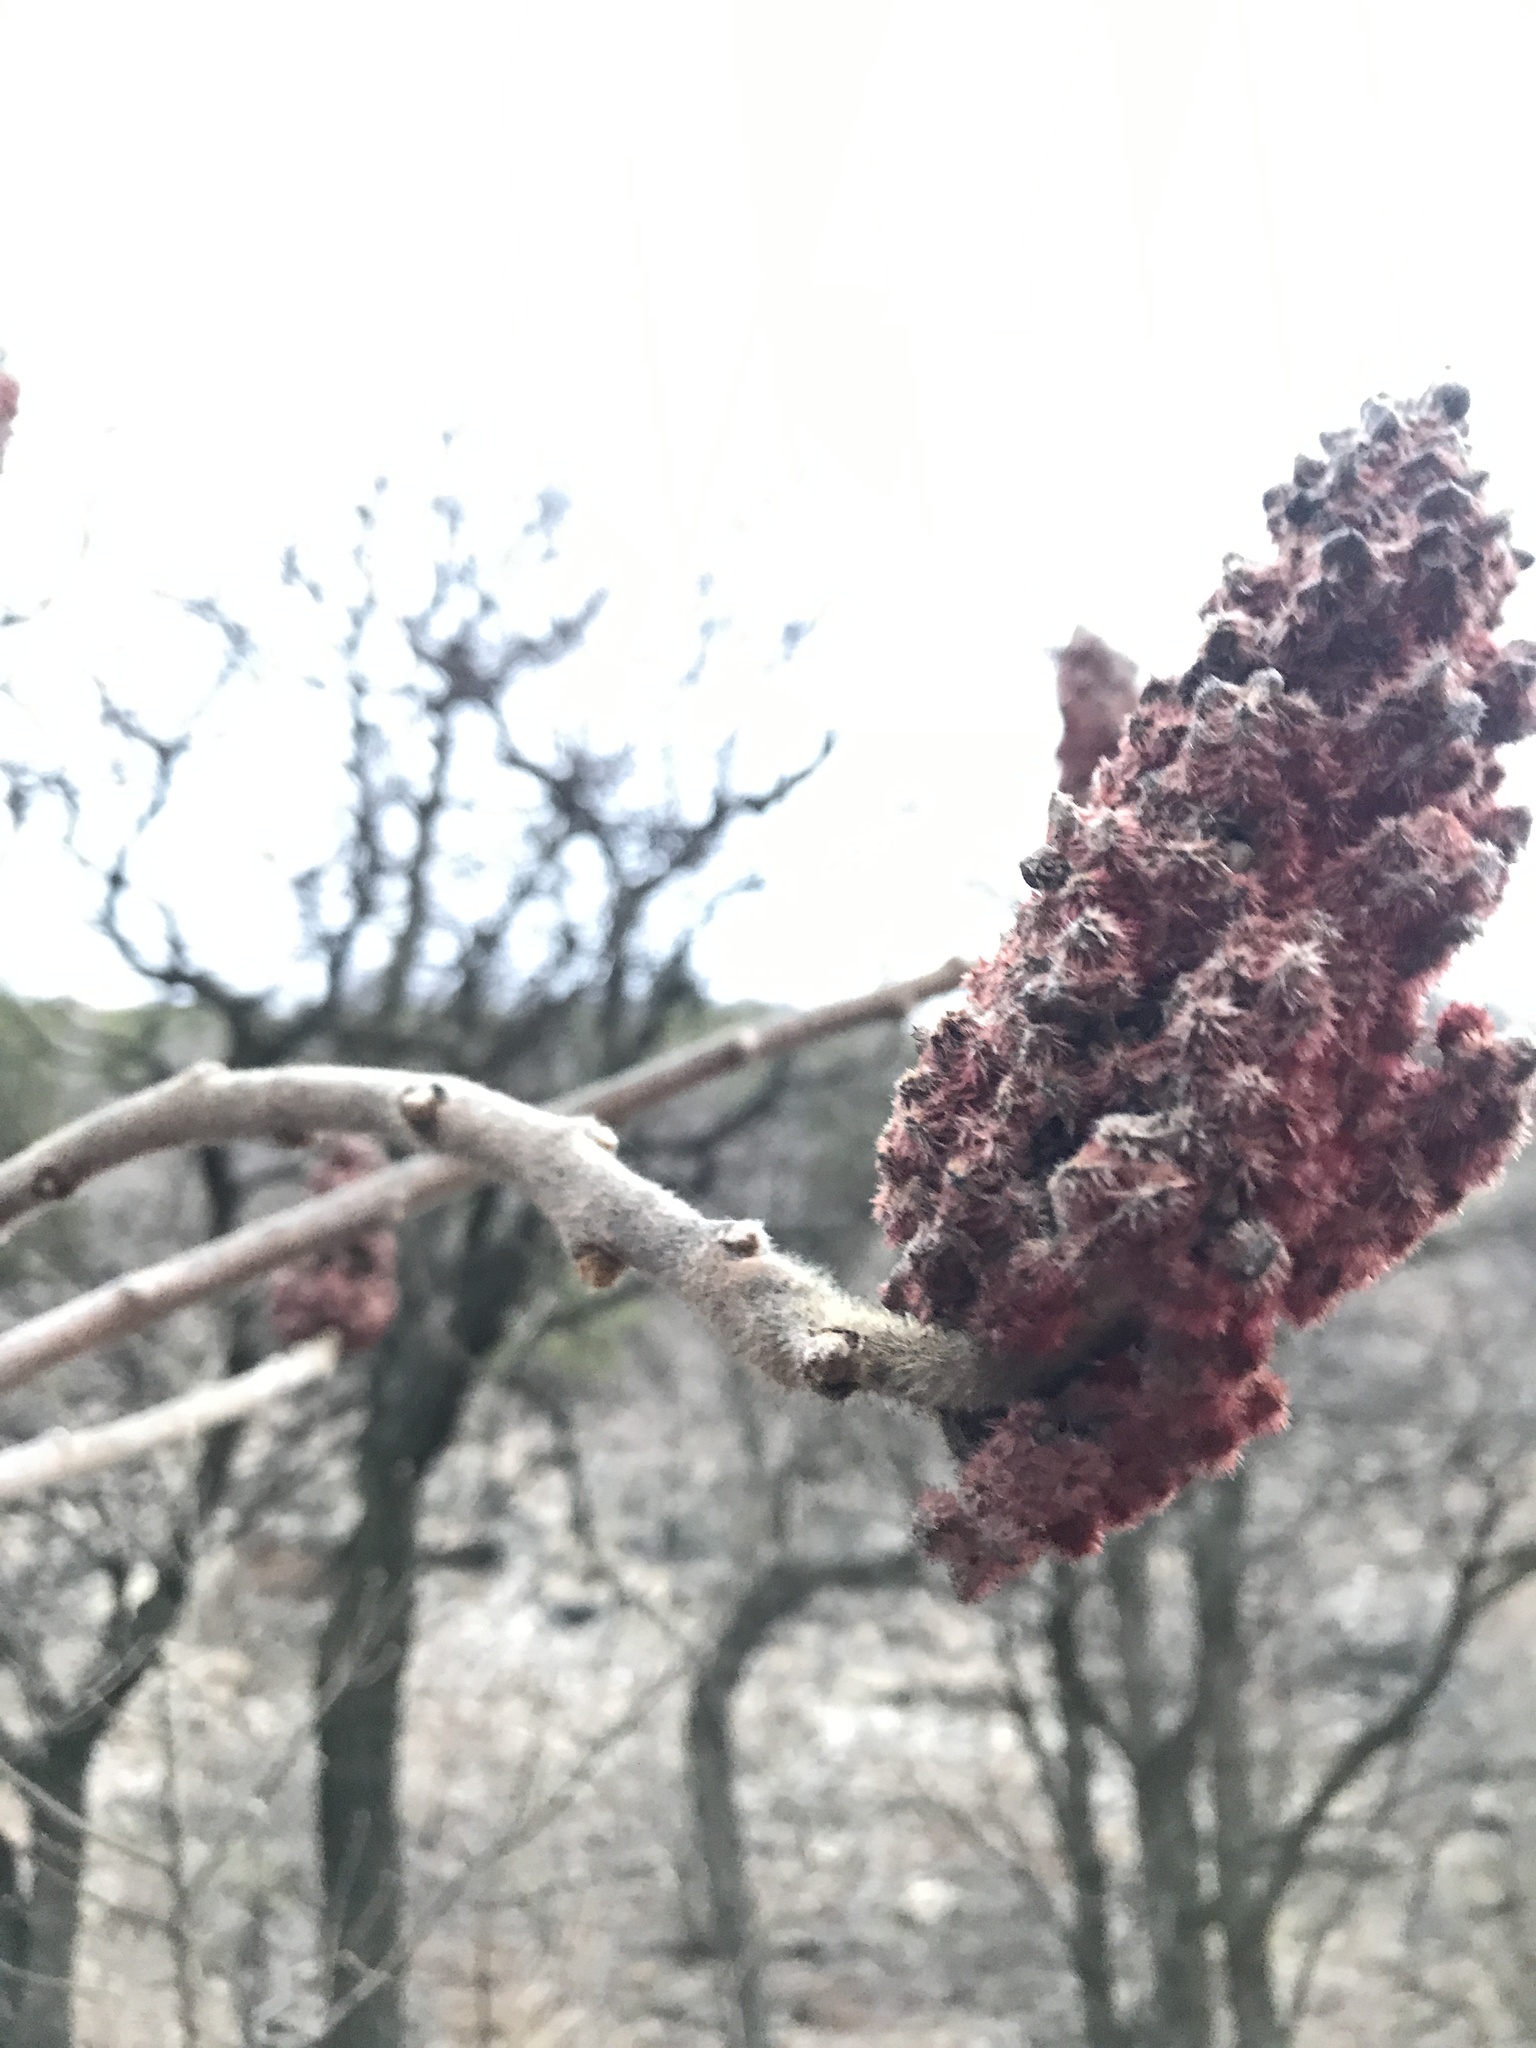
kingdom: Plantae
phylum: Tracheophyta
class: Magnoliopsida
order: Sapindales
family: Anacardiaceae
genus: Rhus
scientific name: Rhus typhina
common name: Staghorn sumac
